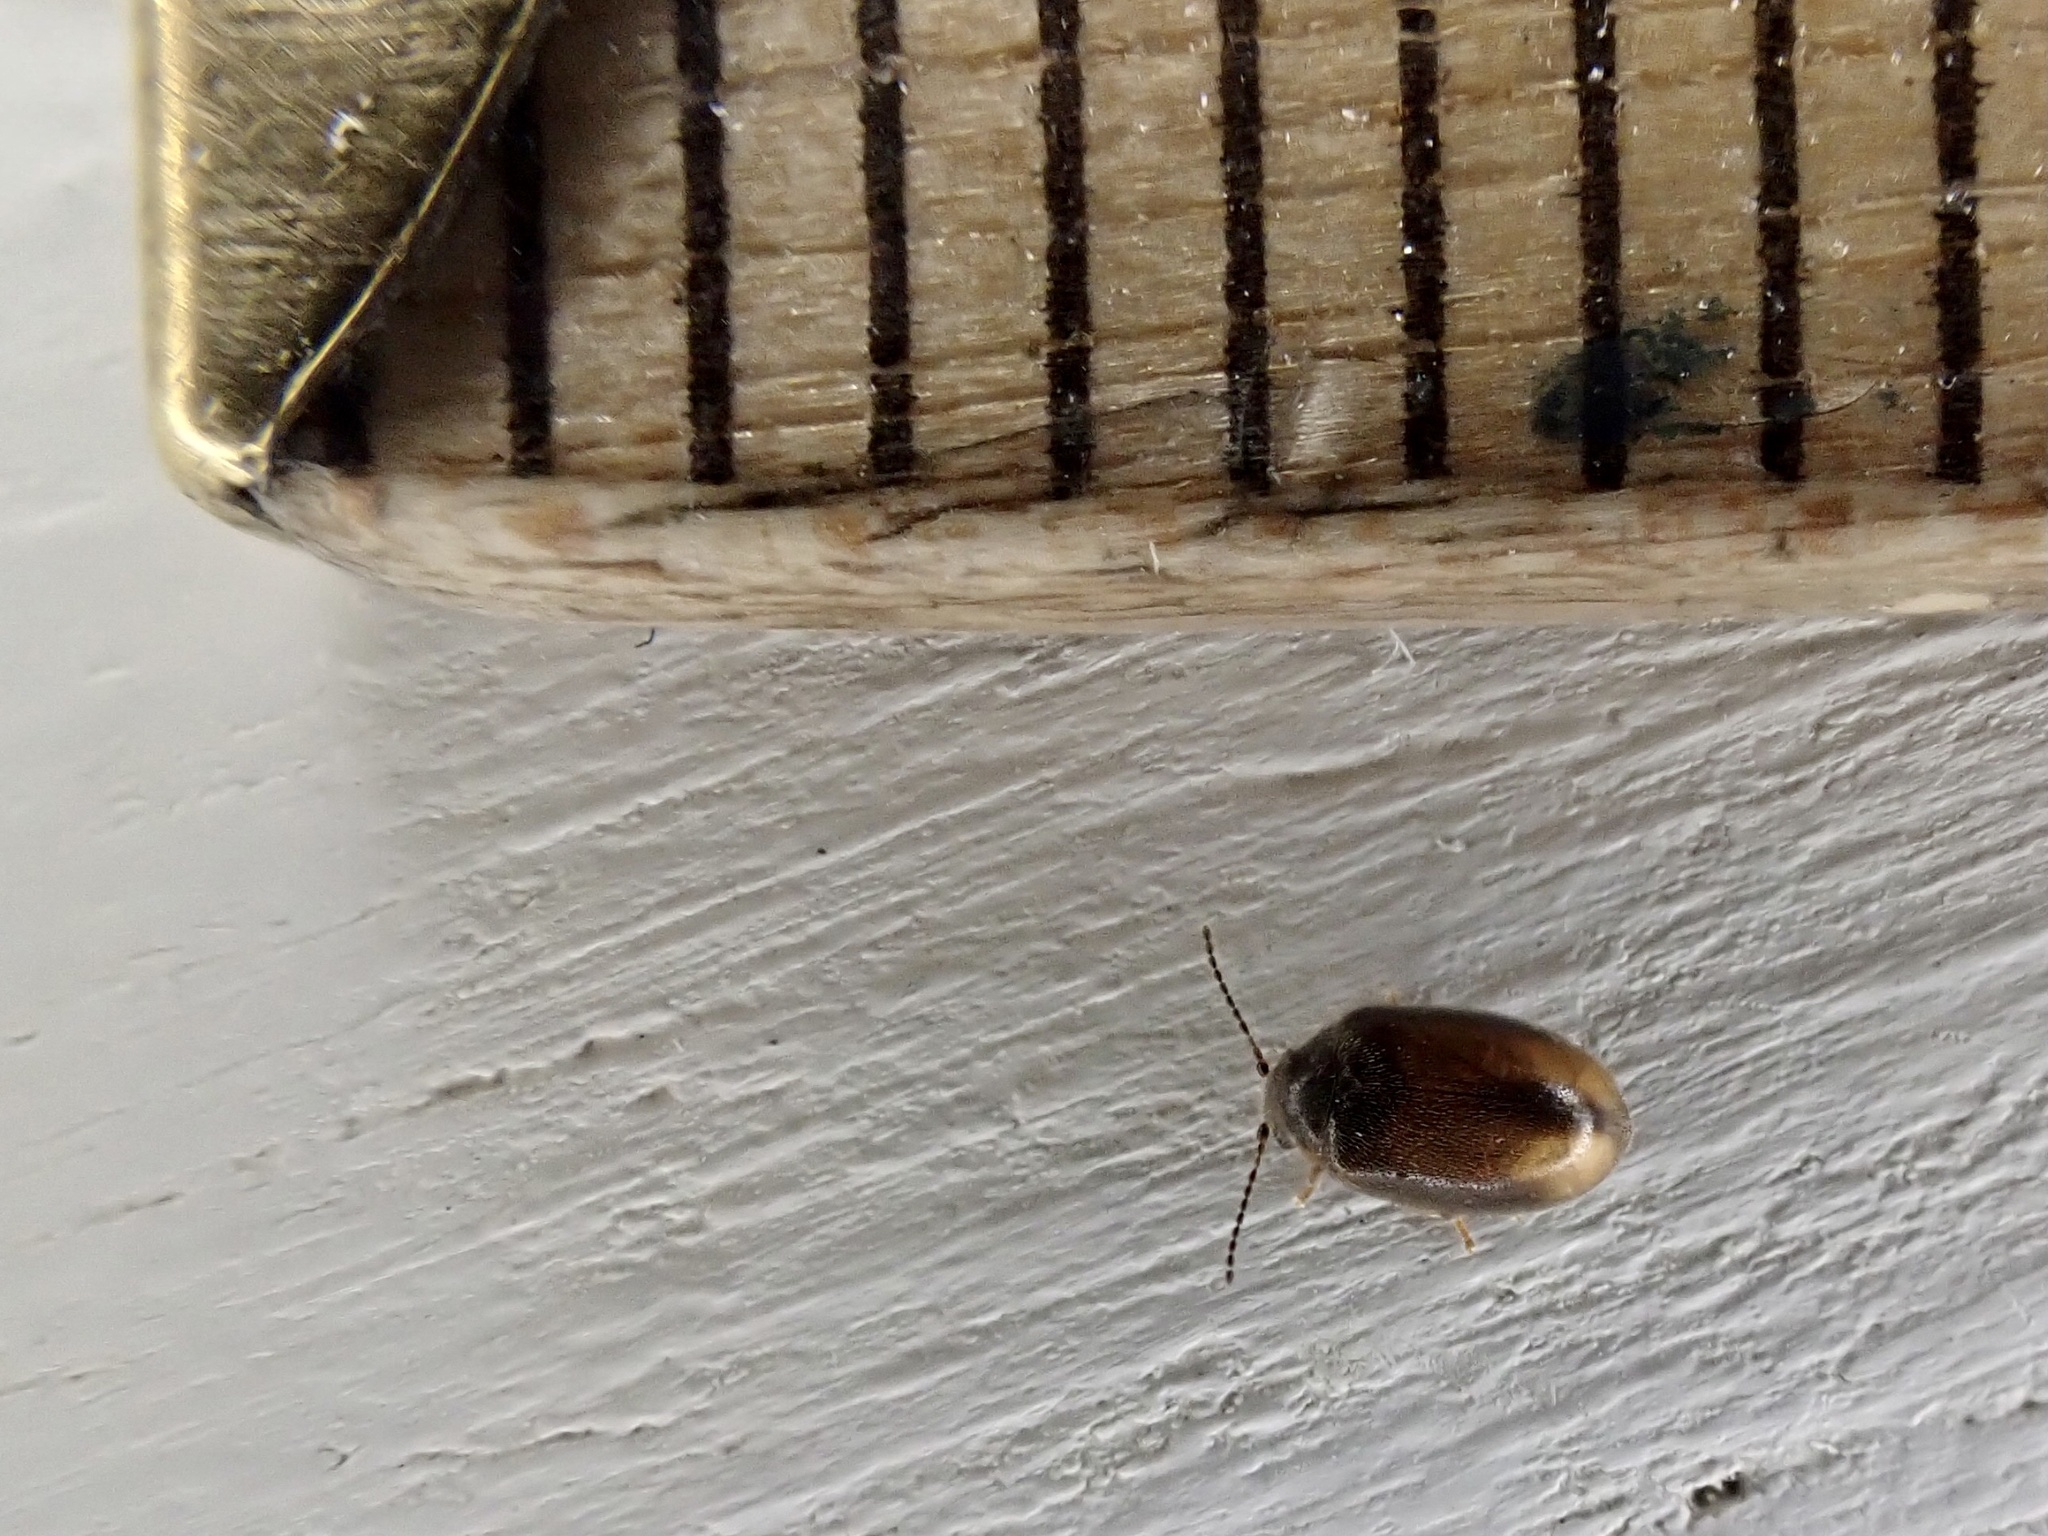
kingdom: Animalia
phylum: Arthropoda
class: Insecta
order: Coleoptera
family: Scirtidae
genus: Cyphon
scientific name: Cyphon padi
